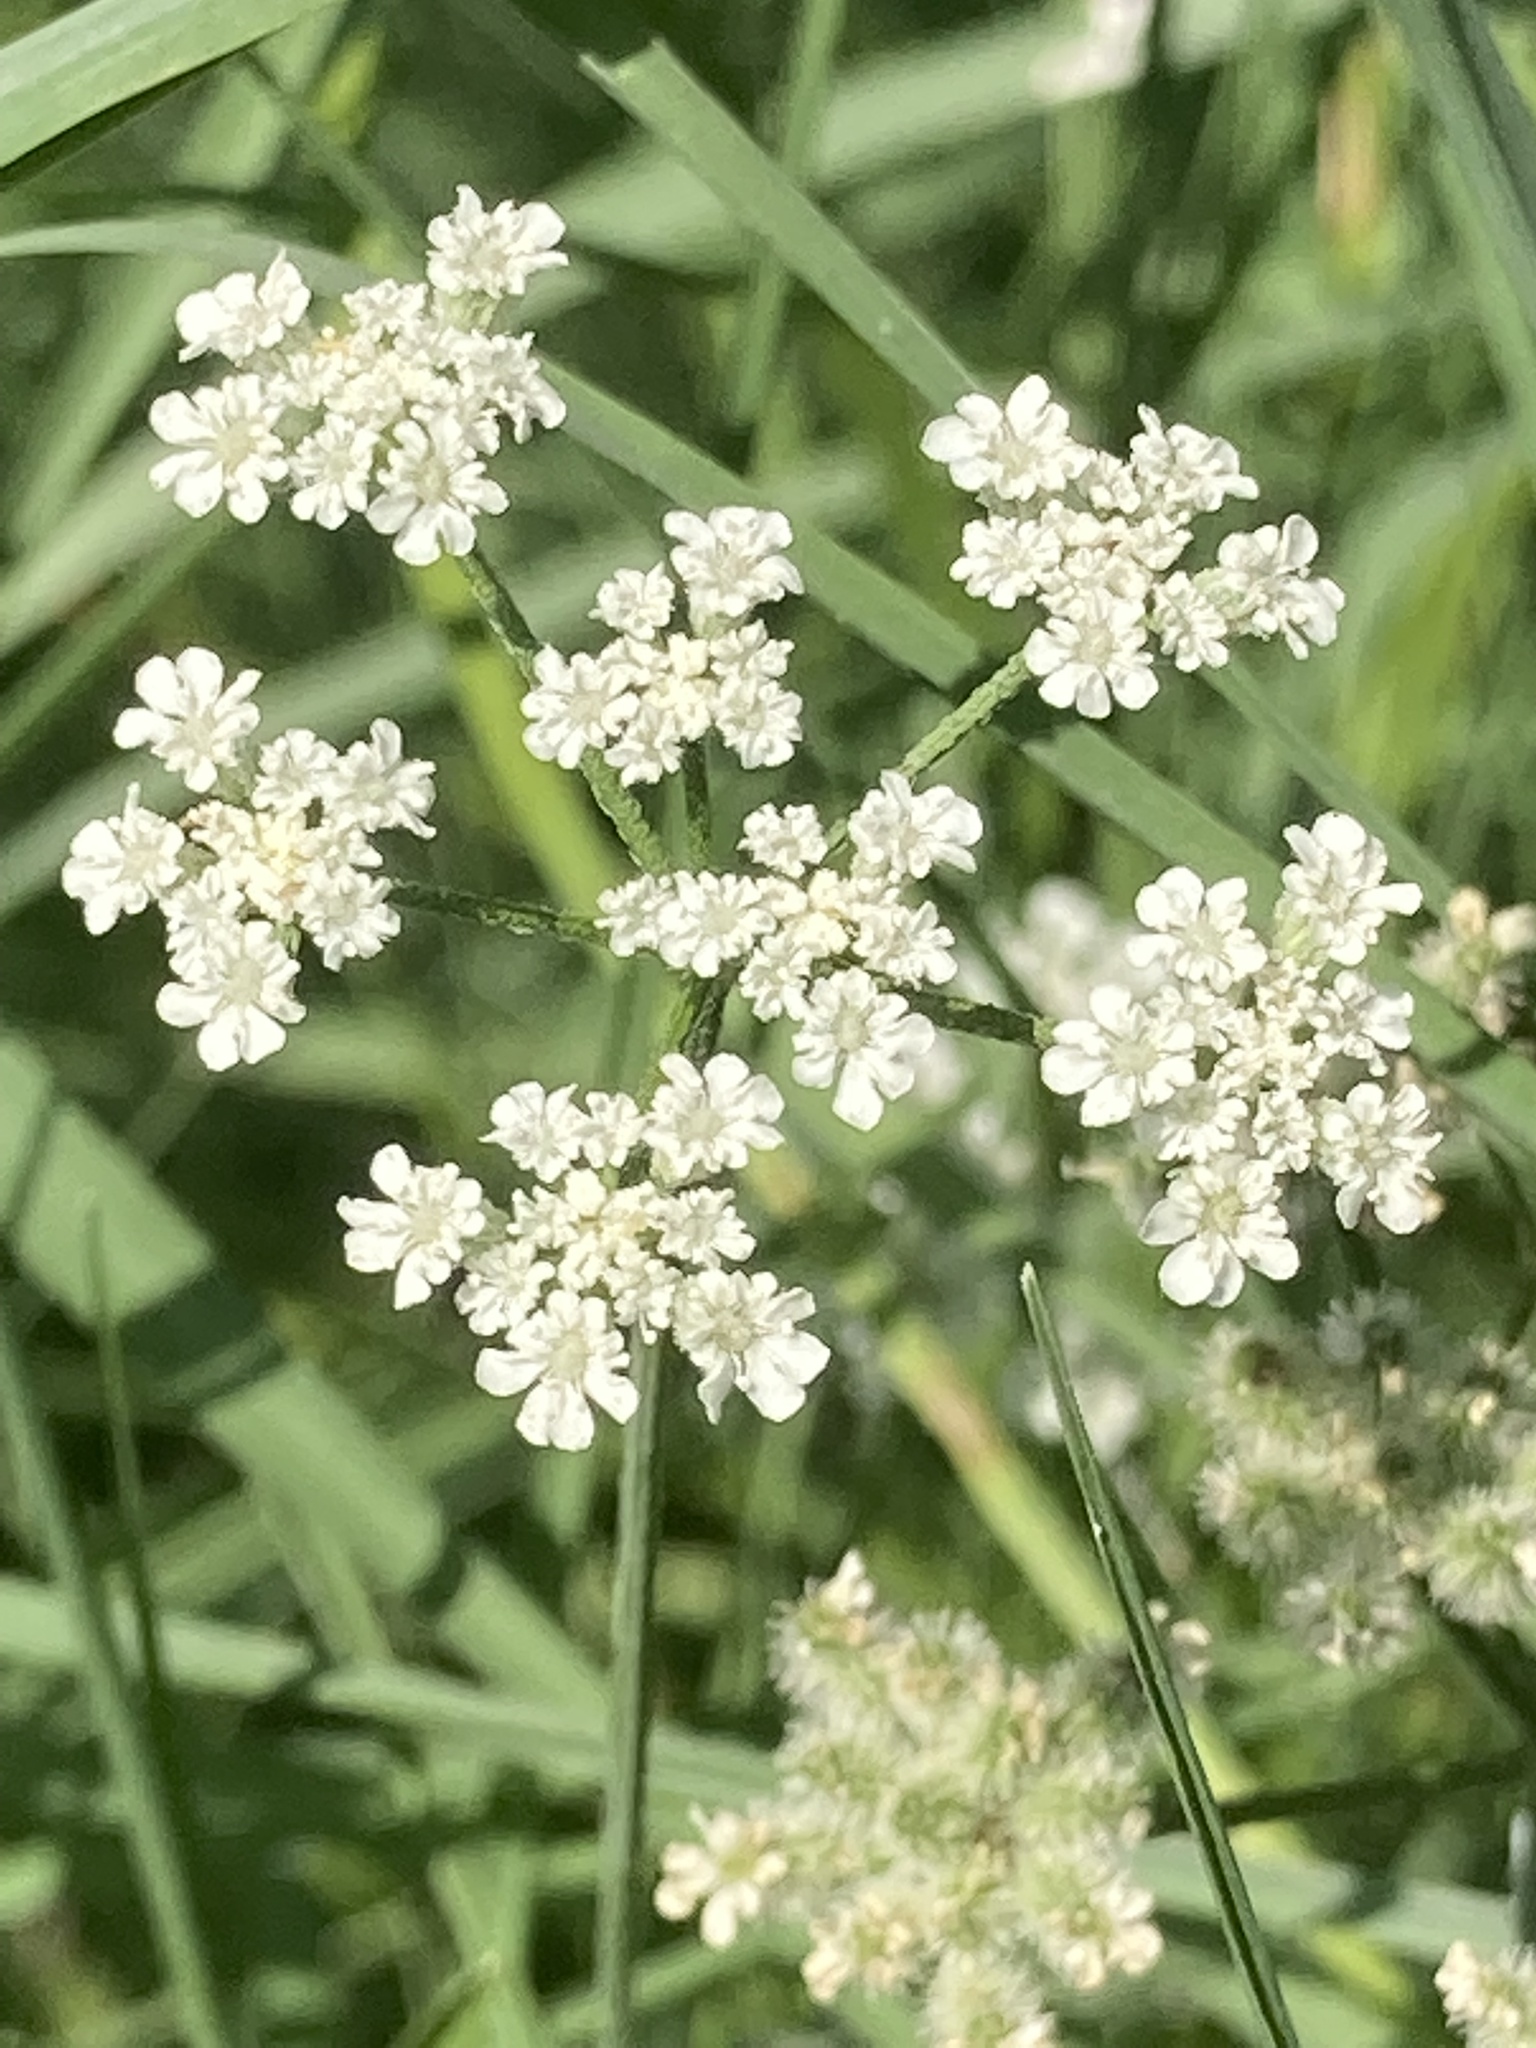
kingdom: Plantae
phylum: Tracheophyta
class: Magnoliopsida
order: Apiales
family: Apiaceae
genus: Torilis
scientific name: Torilis arvensis
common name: Spreading hedge-parsley
